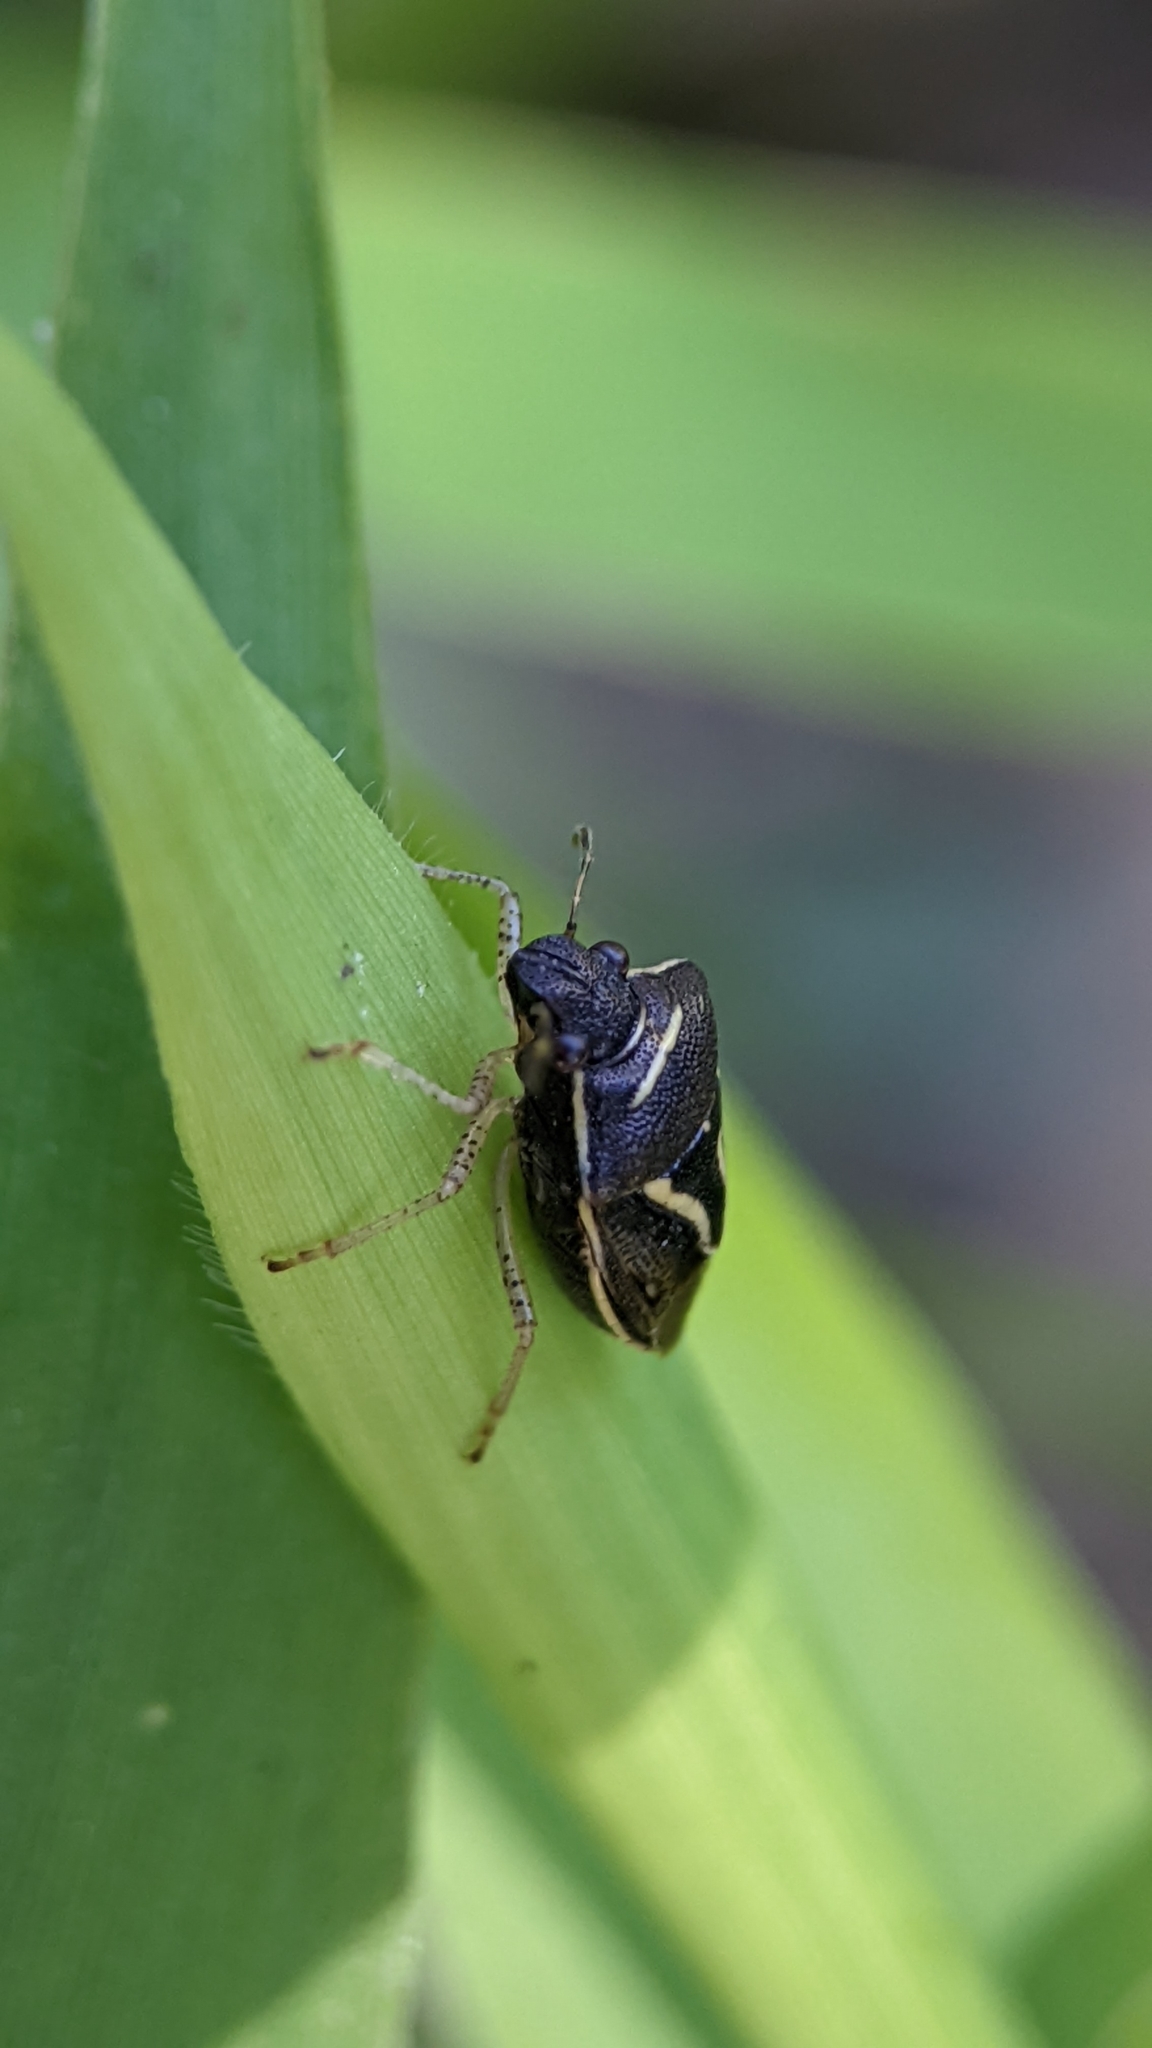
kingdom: Animalia
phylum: Arthropoda
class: Insecta
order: Hemiptera
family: Pentatomidae
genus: Mormidea
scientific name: Mormidea lugens
